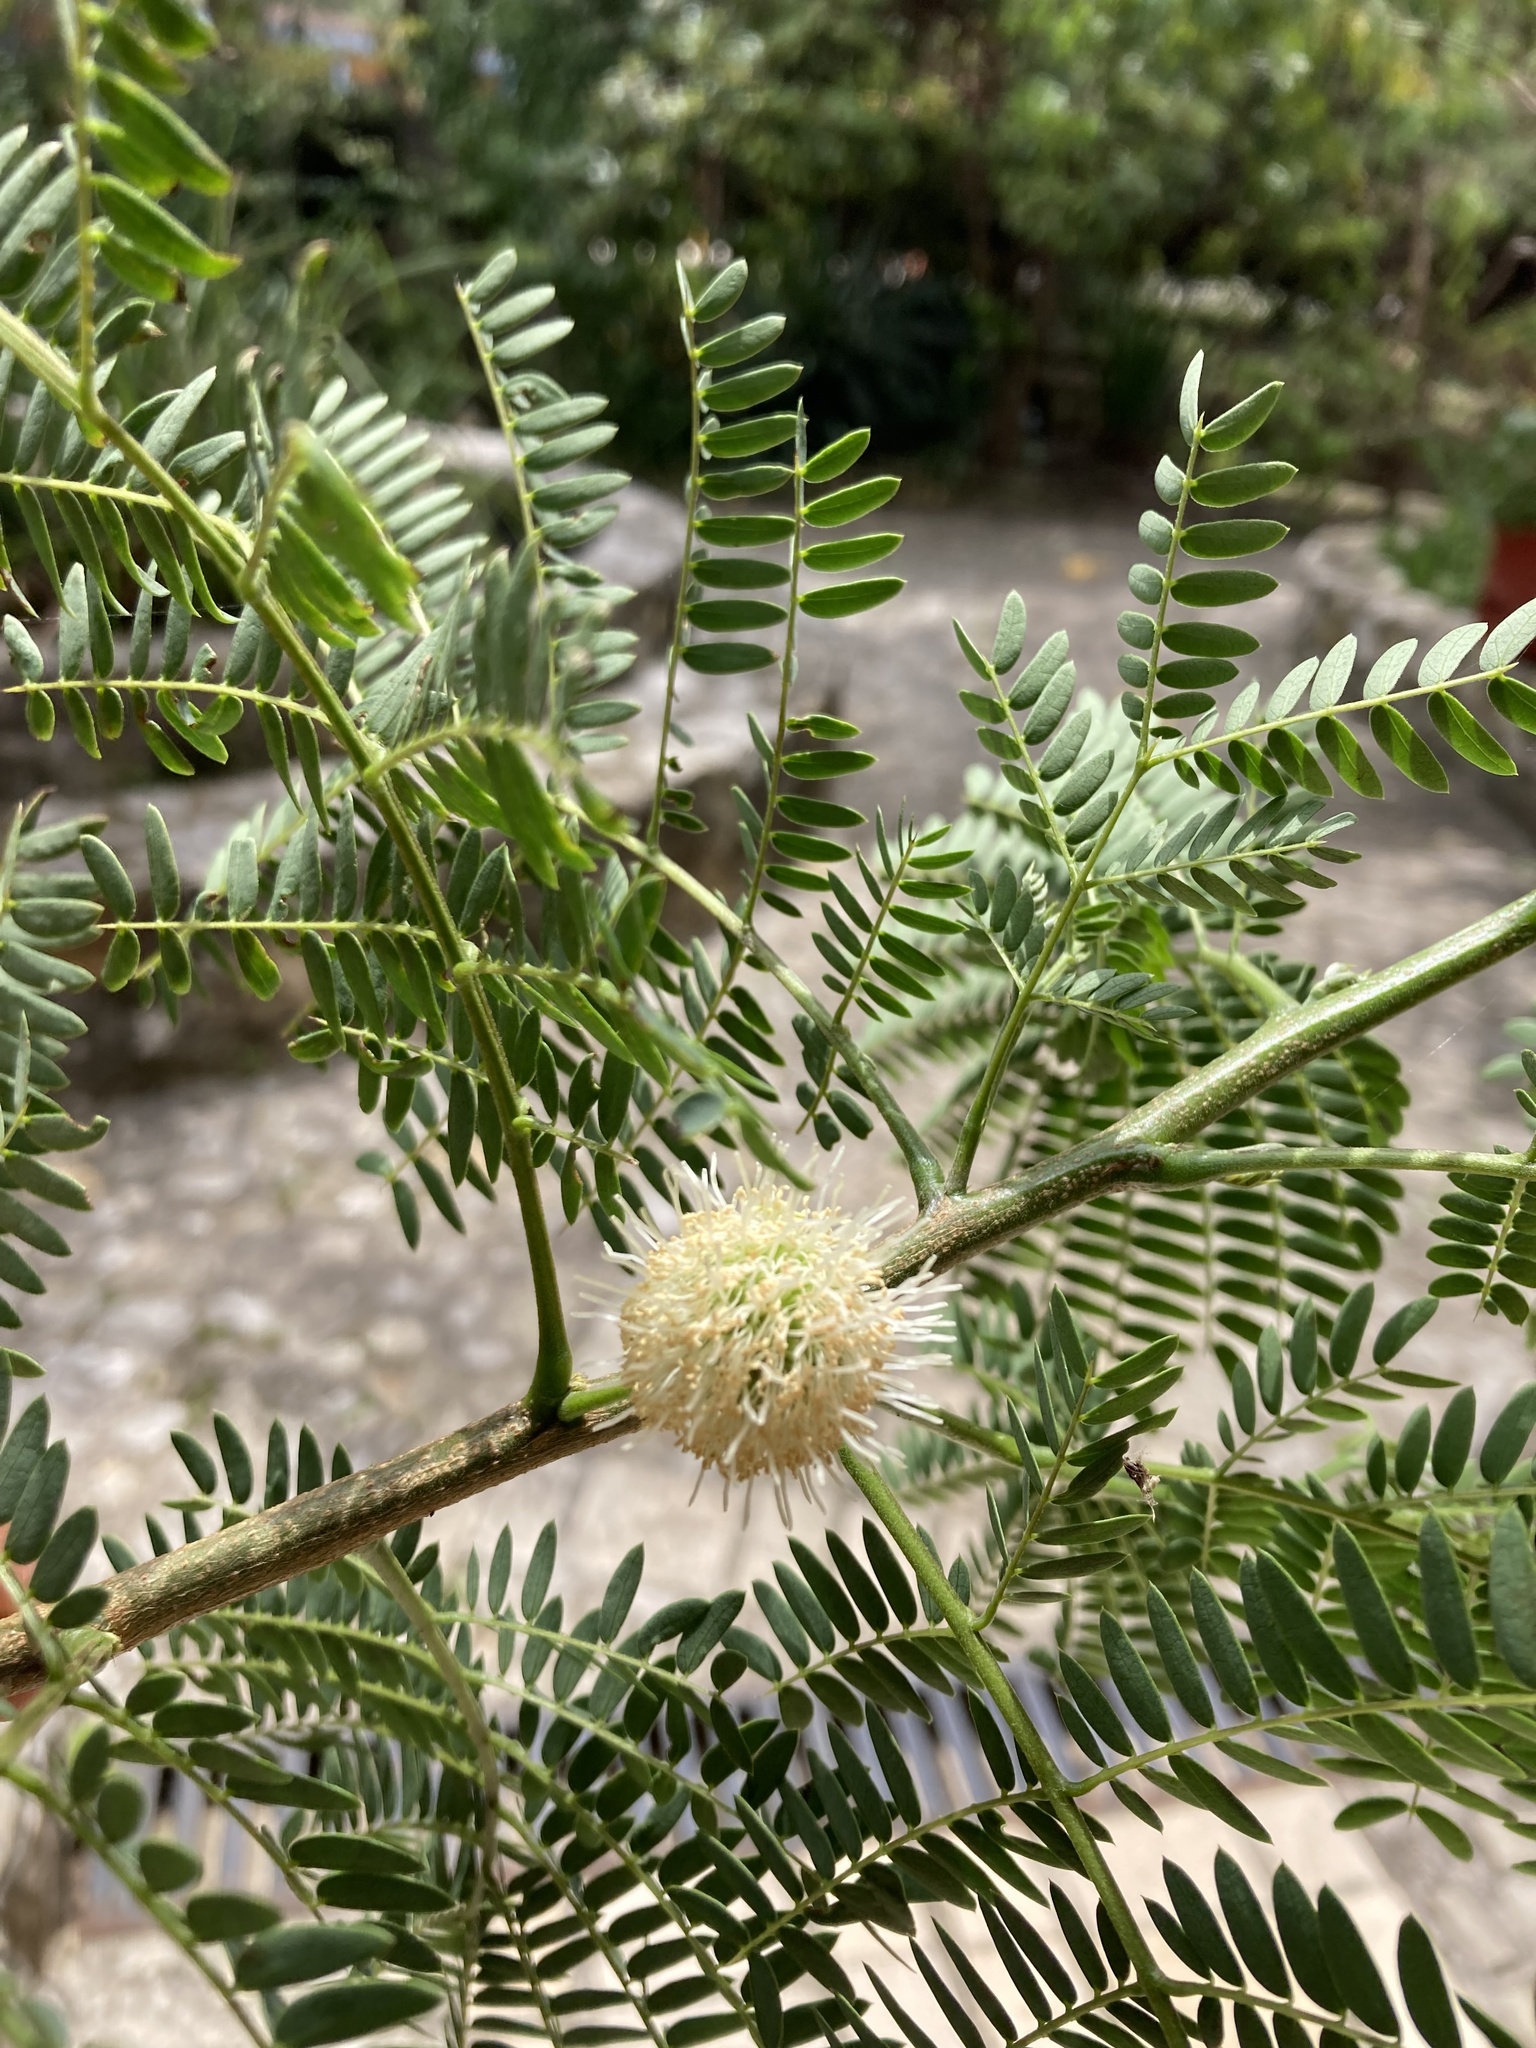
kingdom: Plantae
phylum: Tracheophyta
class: Magnoliopsida
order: Fabales
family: Fabaceae
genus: Leucaena
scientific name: Leucaena leucocephala
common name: White leadtree
